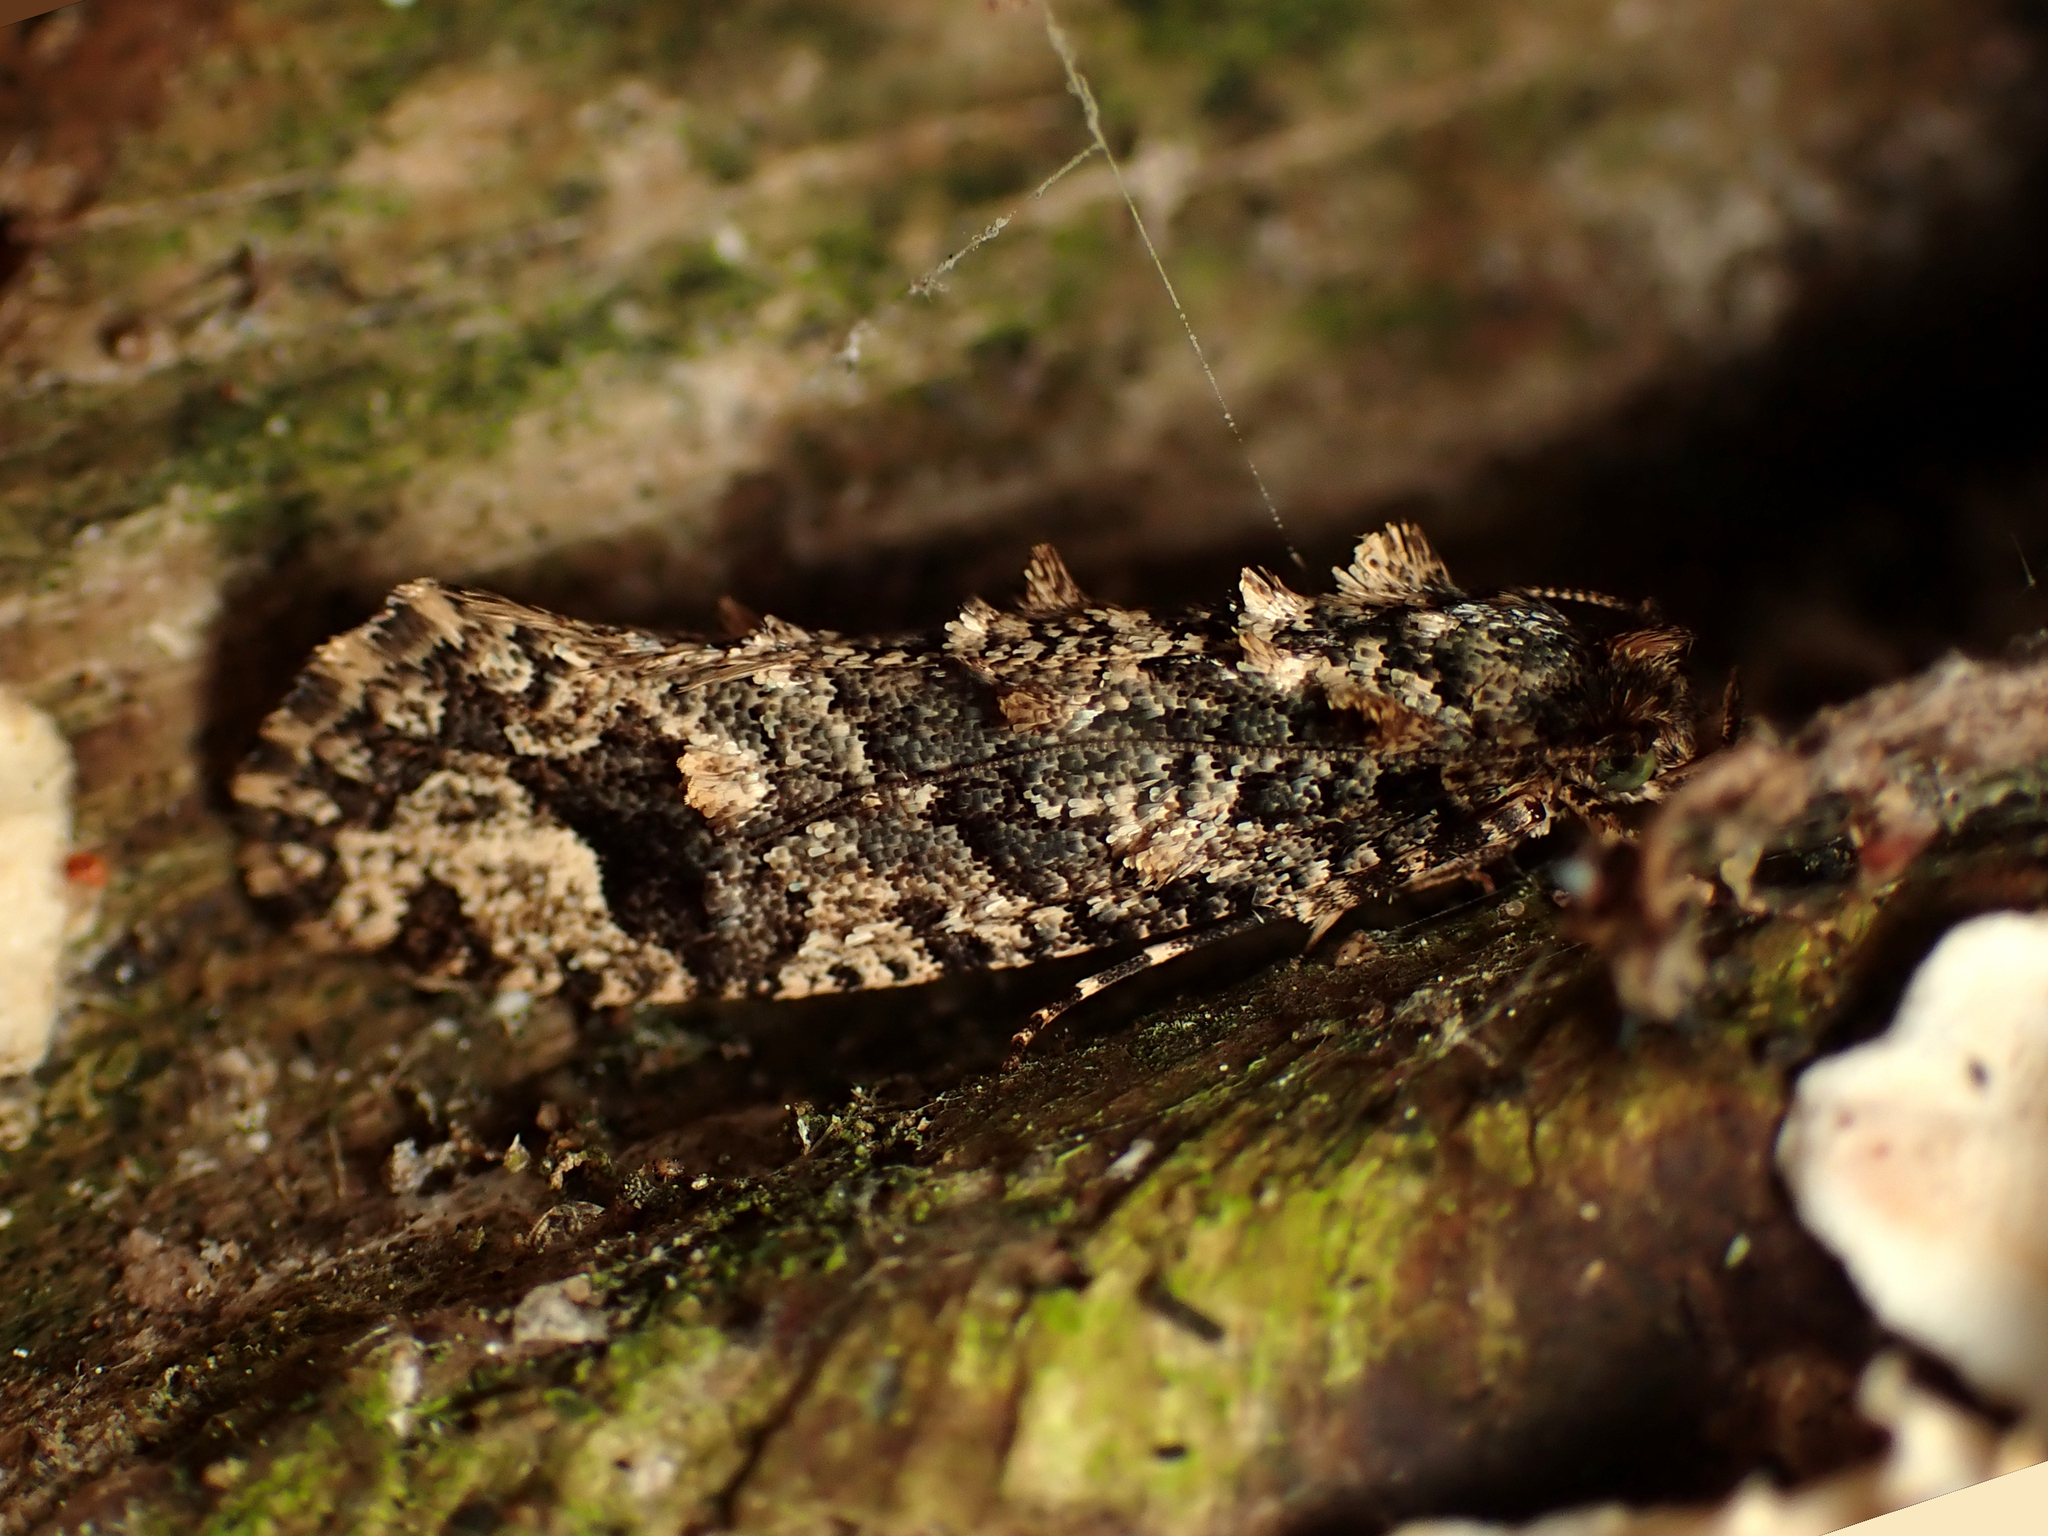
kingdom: Animalia
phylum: Arthropoda
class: Insecta
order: Lepidoptera
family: Tineidae
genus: Lysiphragma
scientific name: Lysiphragma epixyla
